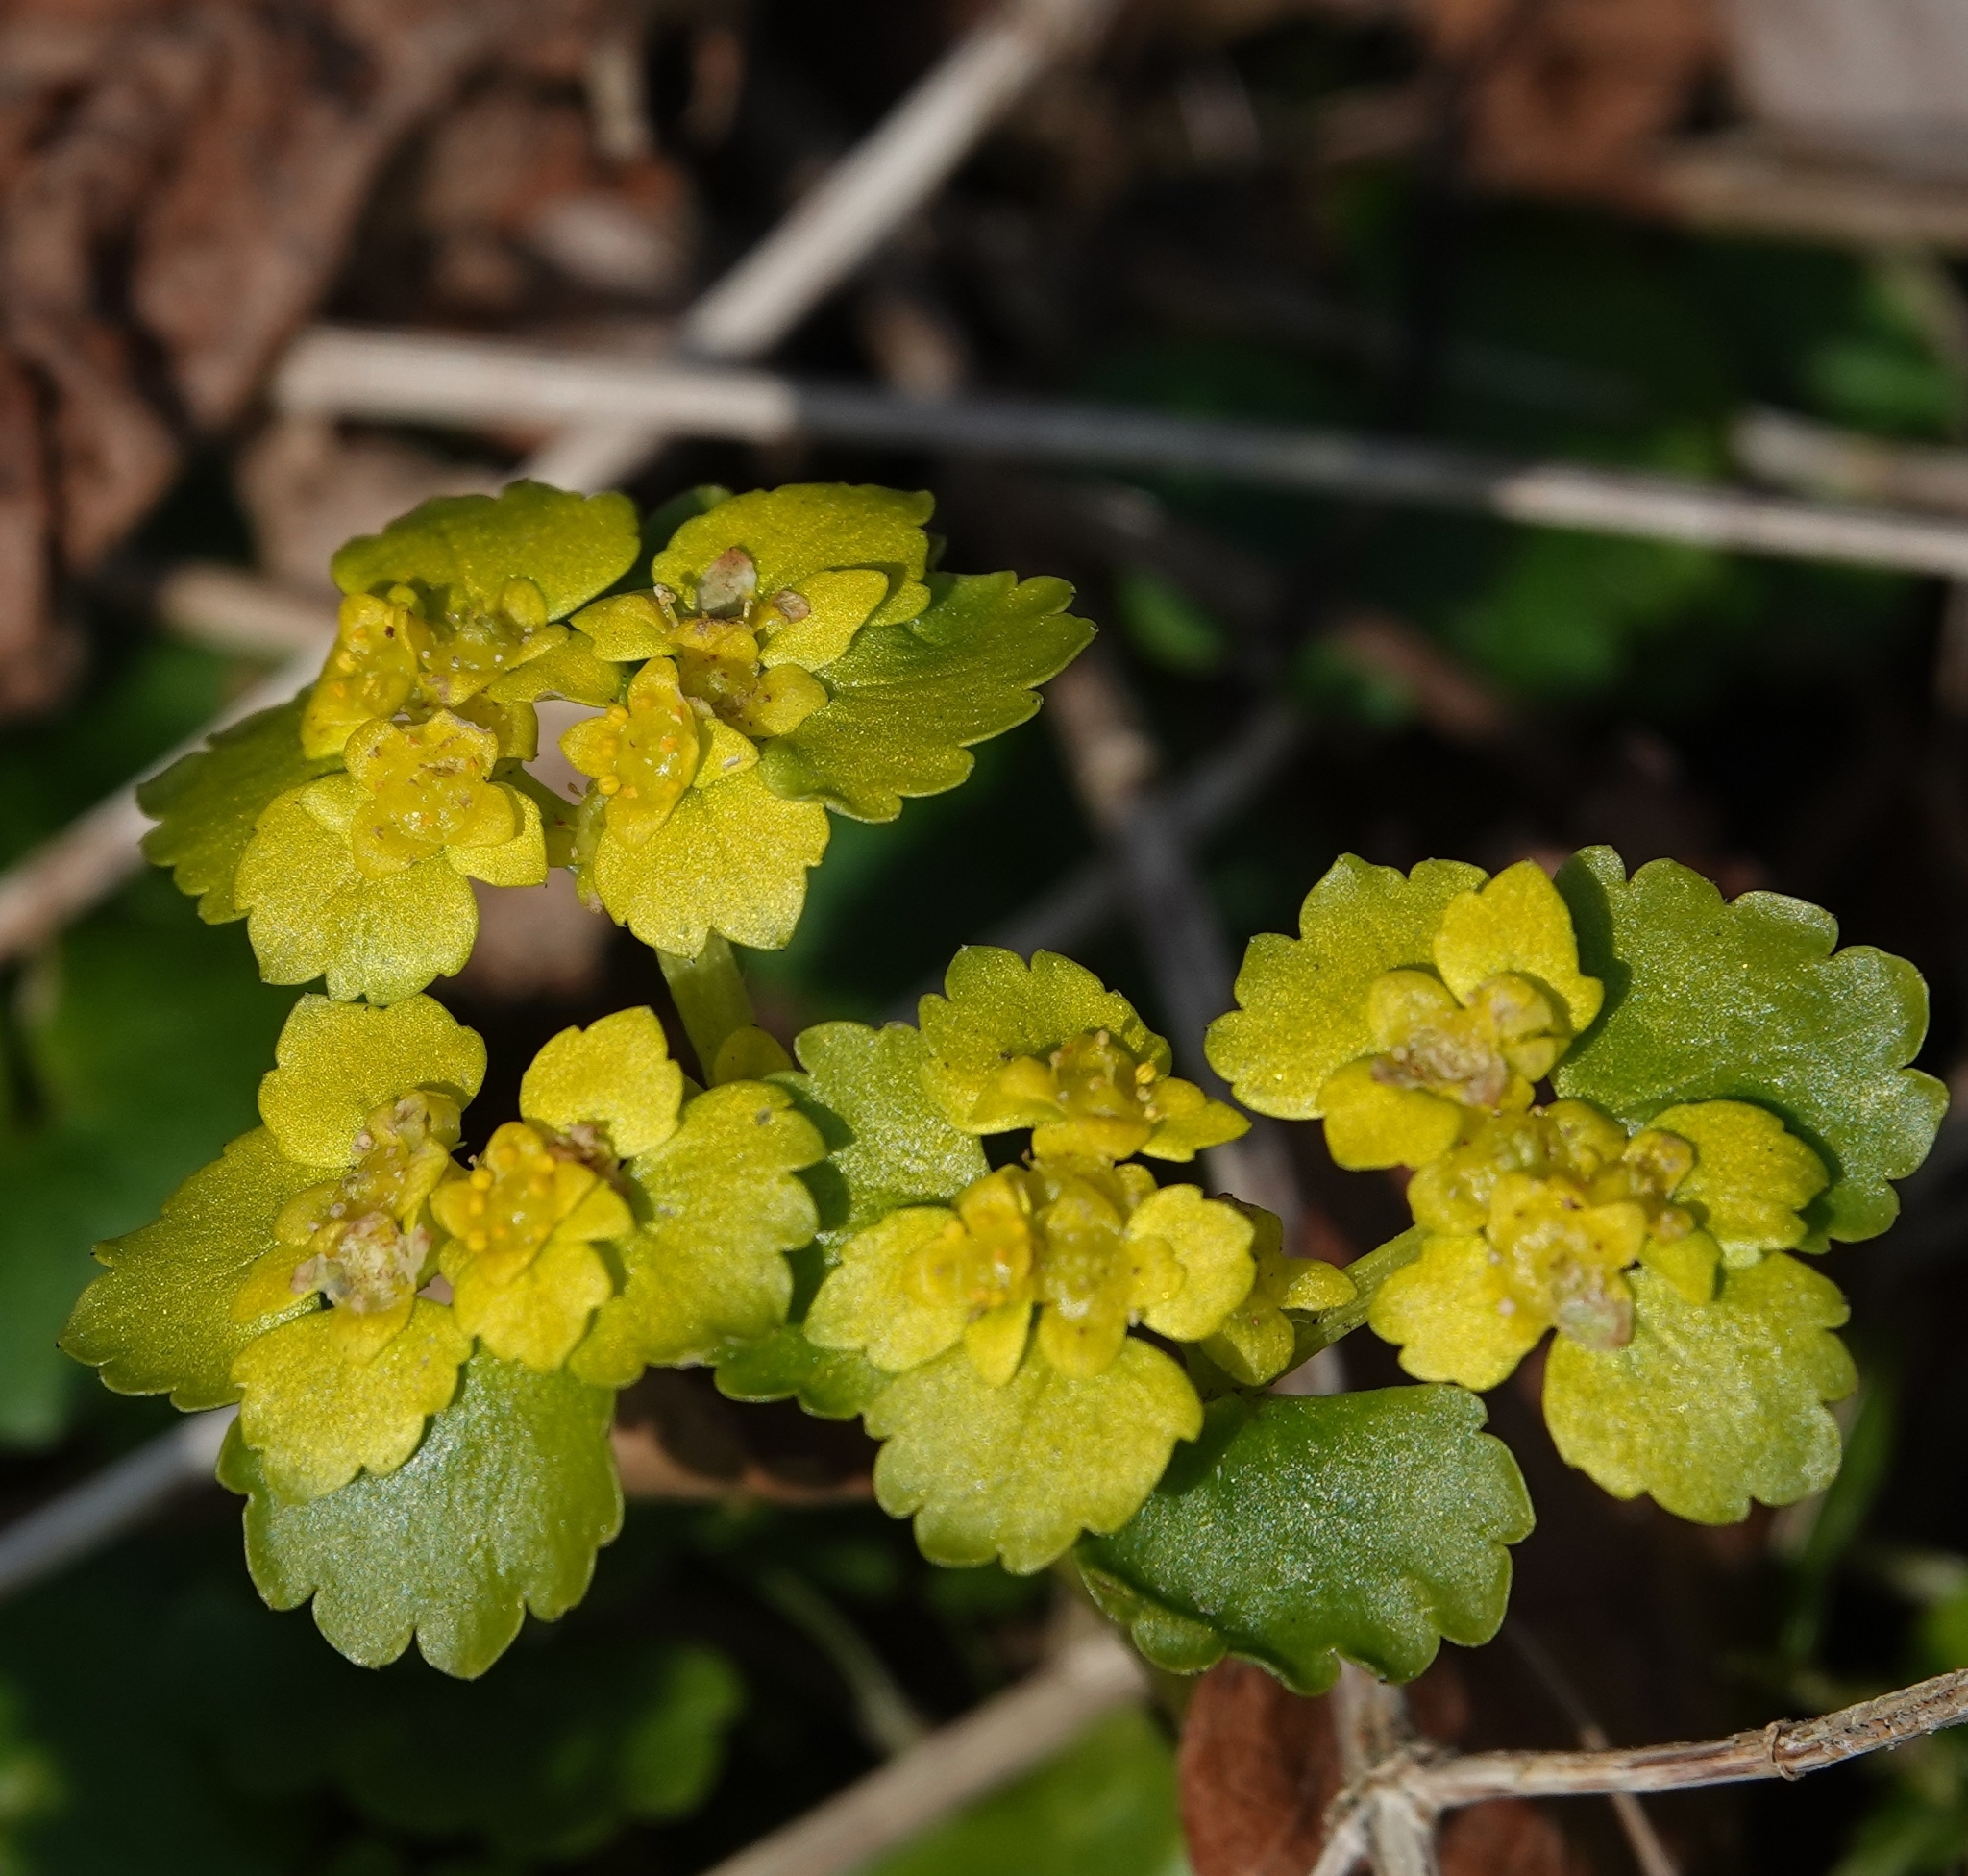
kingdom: Plantae
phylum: Tracheophyta
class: Magnoliopsida
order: Saxifragales
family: Saxifragaceae
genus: Chrysosplenium
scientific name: Chrysosplenium alternifolium
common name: Alternate-leaved golden-saxifrage
